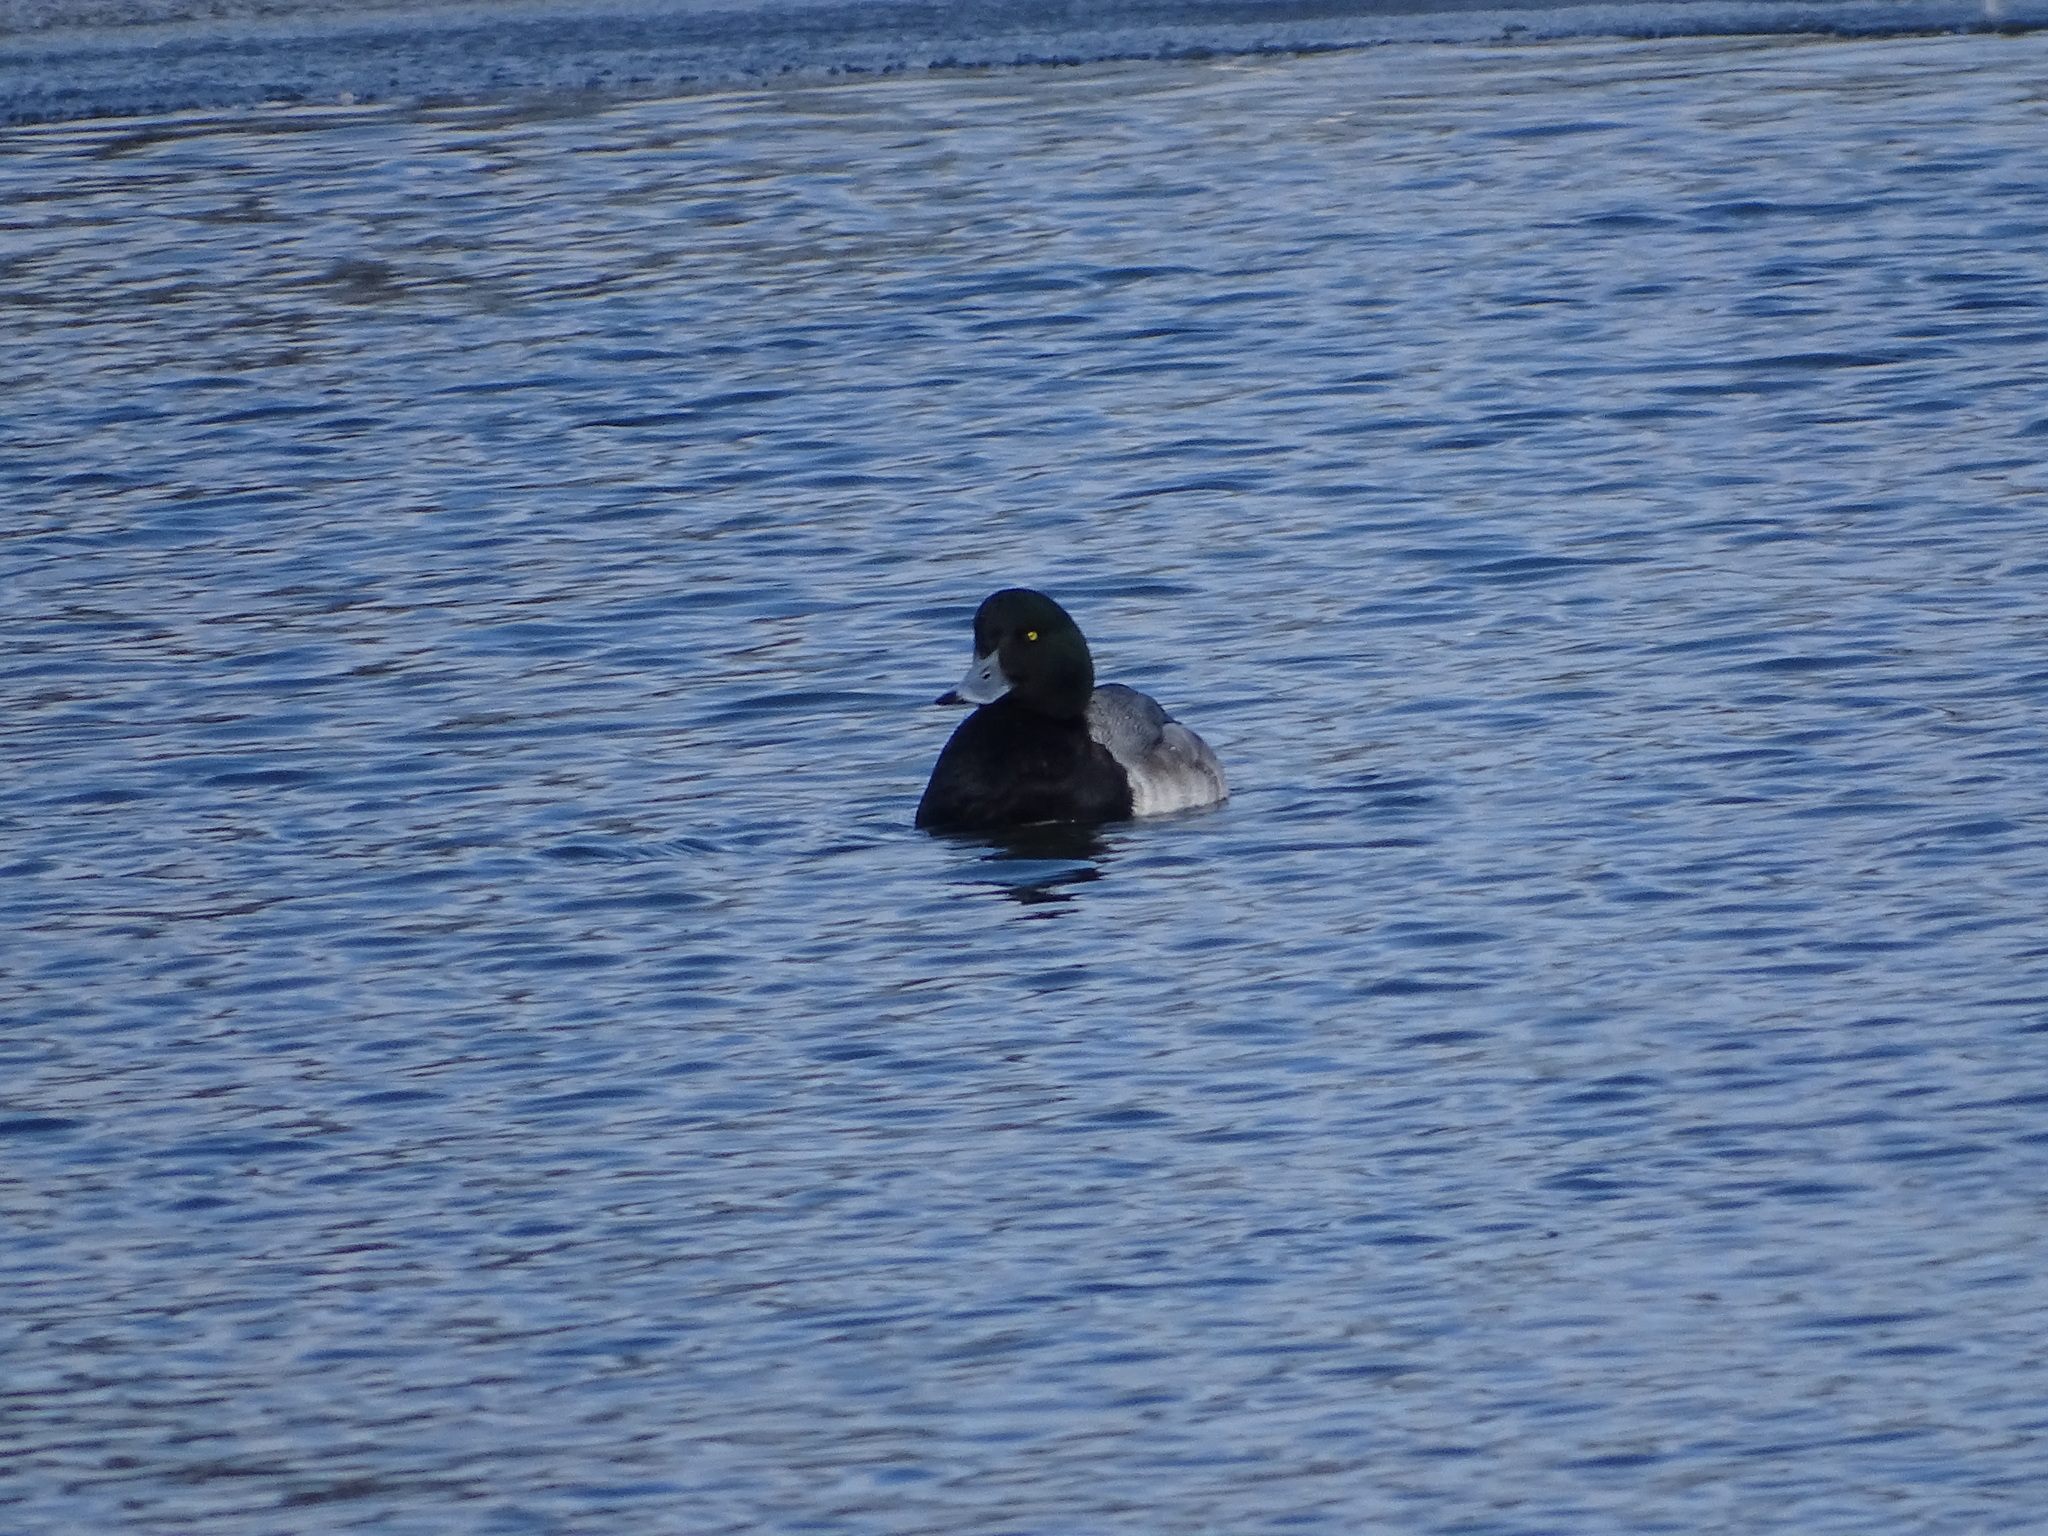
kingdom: Animalia
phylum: Chordata
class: Aves
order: Anseriformes
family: Anatidae
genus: Aythya
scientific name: Aythya marila
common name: Greater scaup
